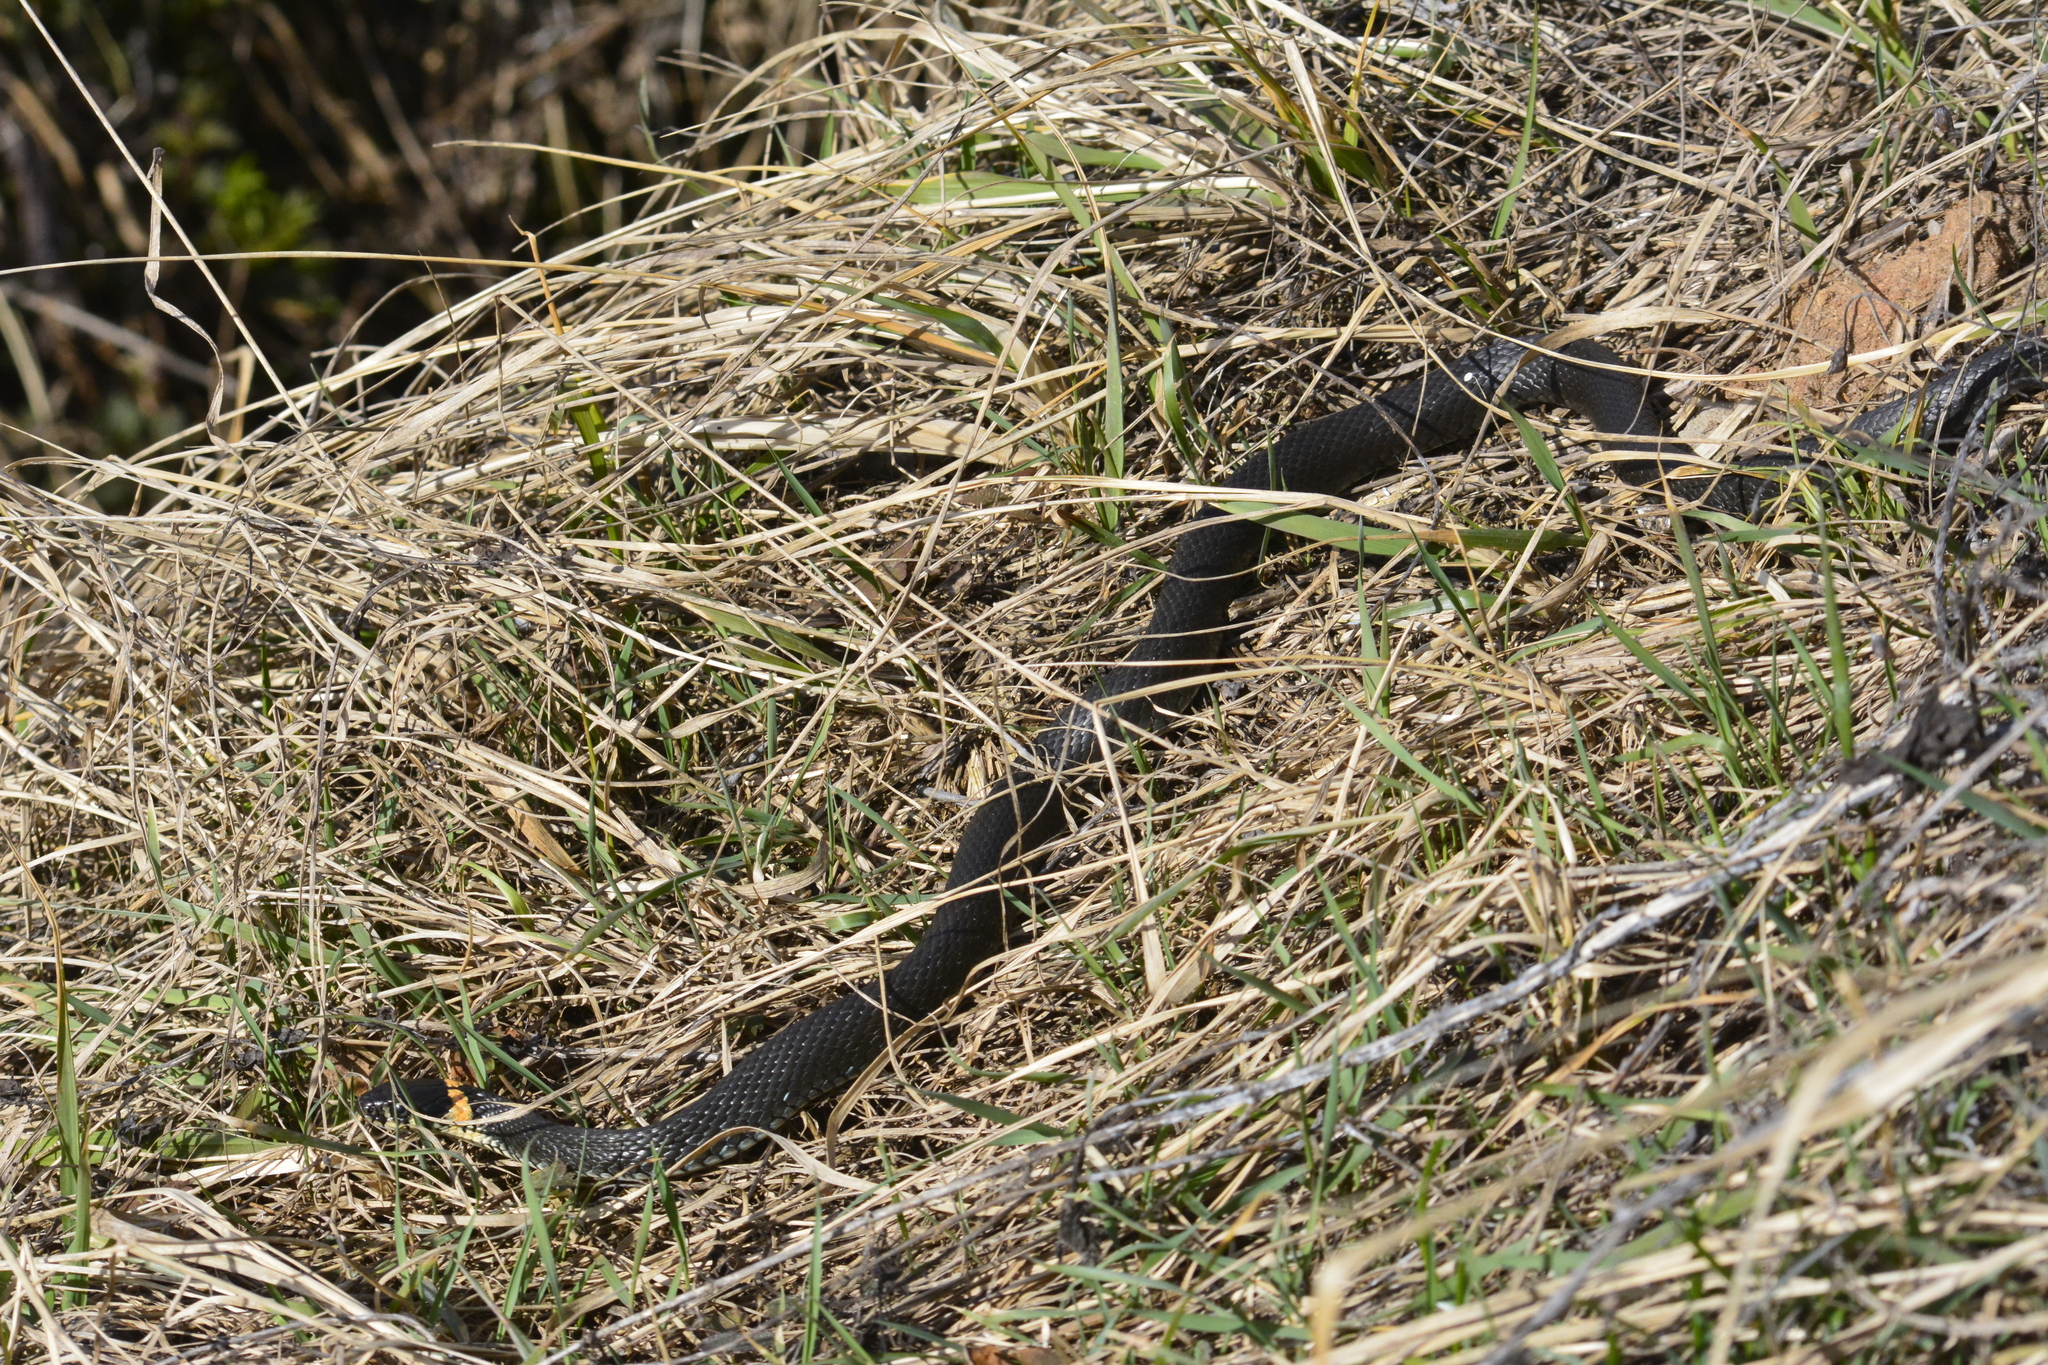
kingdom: Animalia
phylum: Chordata
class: Squamata
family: Colubridae
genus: Natrix
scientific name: Natrix natrix
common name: Grass snake
